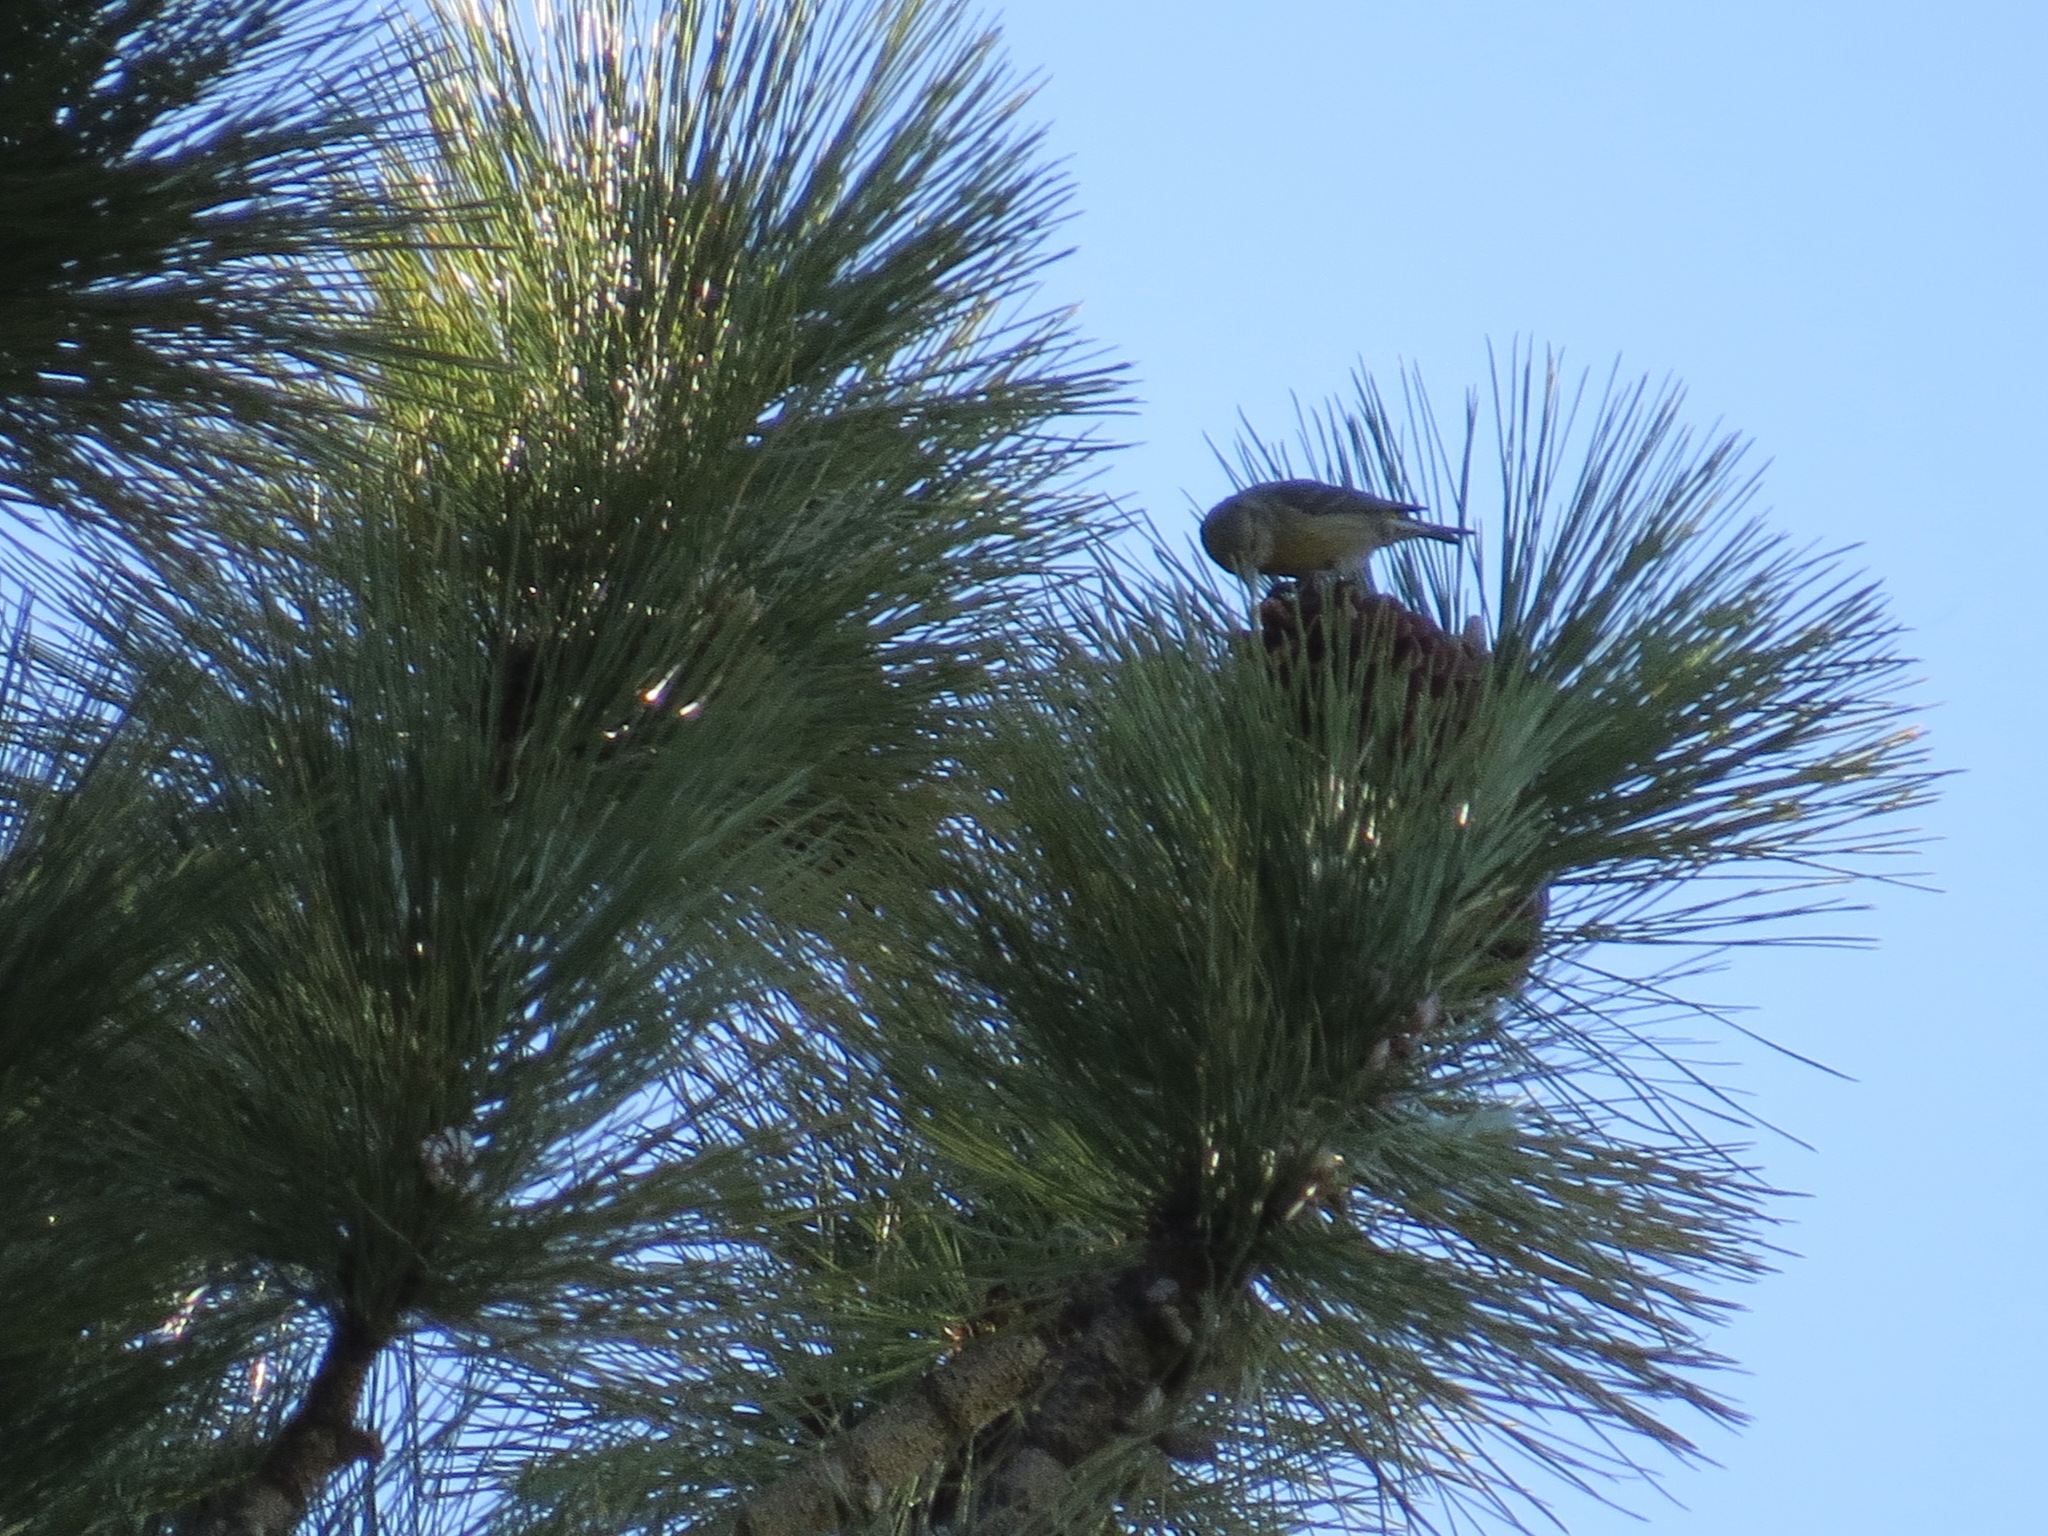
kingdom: Animalia
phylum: Chordata
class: Aves
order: Passeriformes
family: Fringillidae
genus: Loxia
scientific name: Loxia curvirostra
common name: Red crossbill
